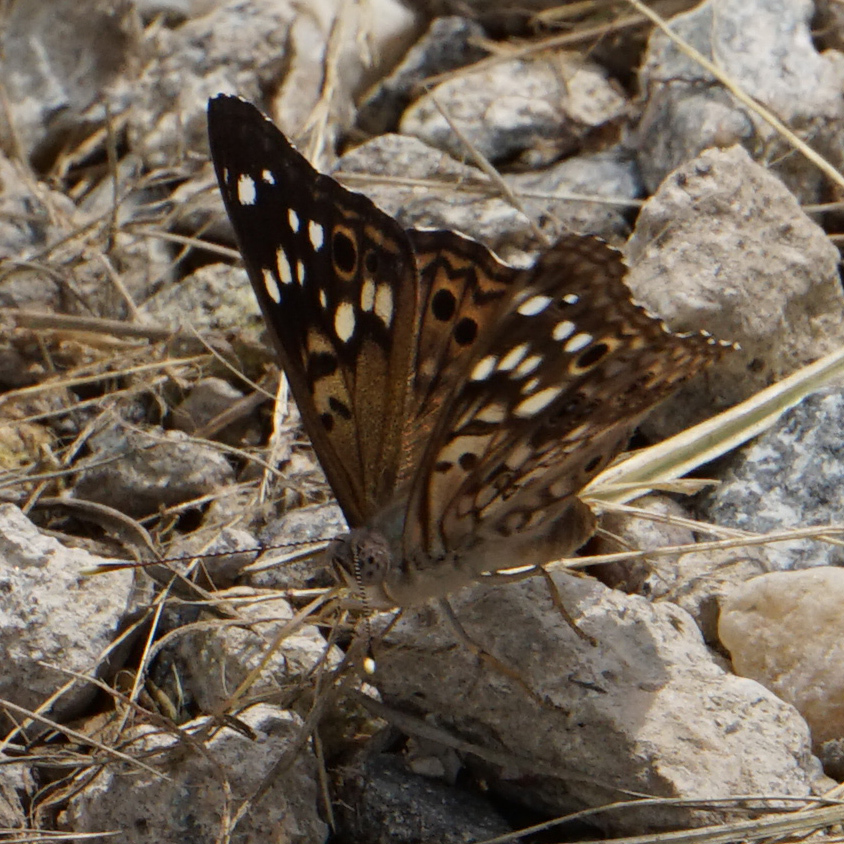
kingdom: Animalia
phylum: Arthropoda
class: Insecta
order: Lepidoptera
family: Nymphalidae
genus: Asterocampa
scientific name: Asterocampa celtis
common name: Hackberry emperor
